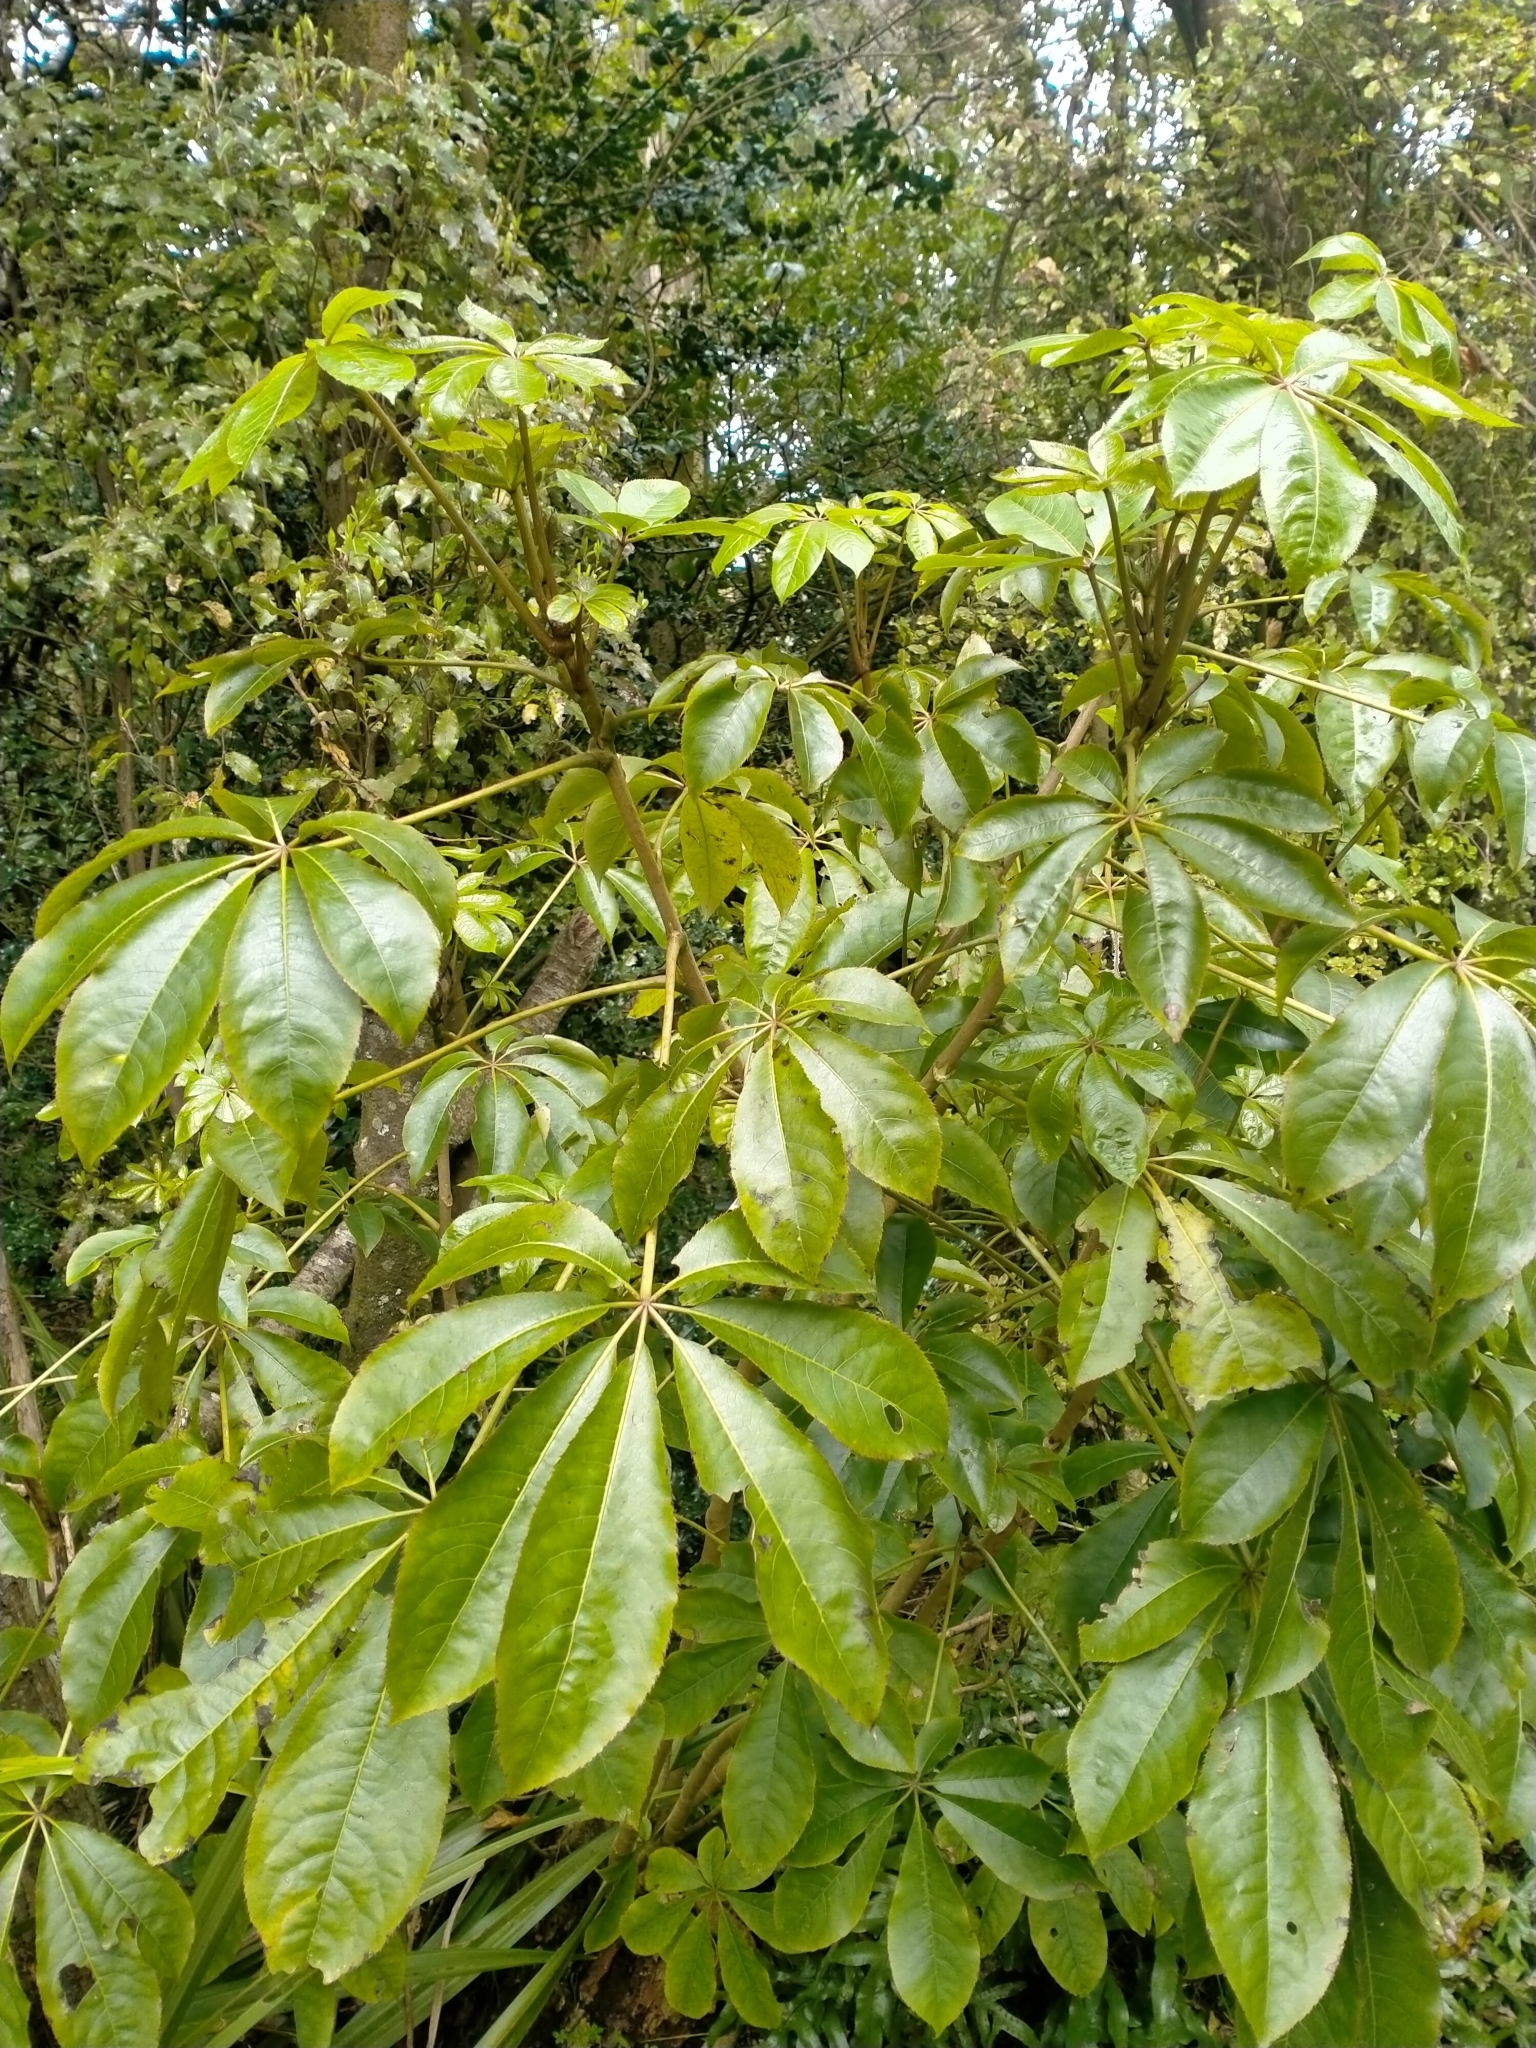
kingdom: Plantae
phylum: Tracheophyta
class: Magnoliopsida
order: Apiales
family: Araliaceae
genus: Schefflera
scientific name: Schefflera digitata
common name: Pate
